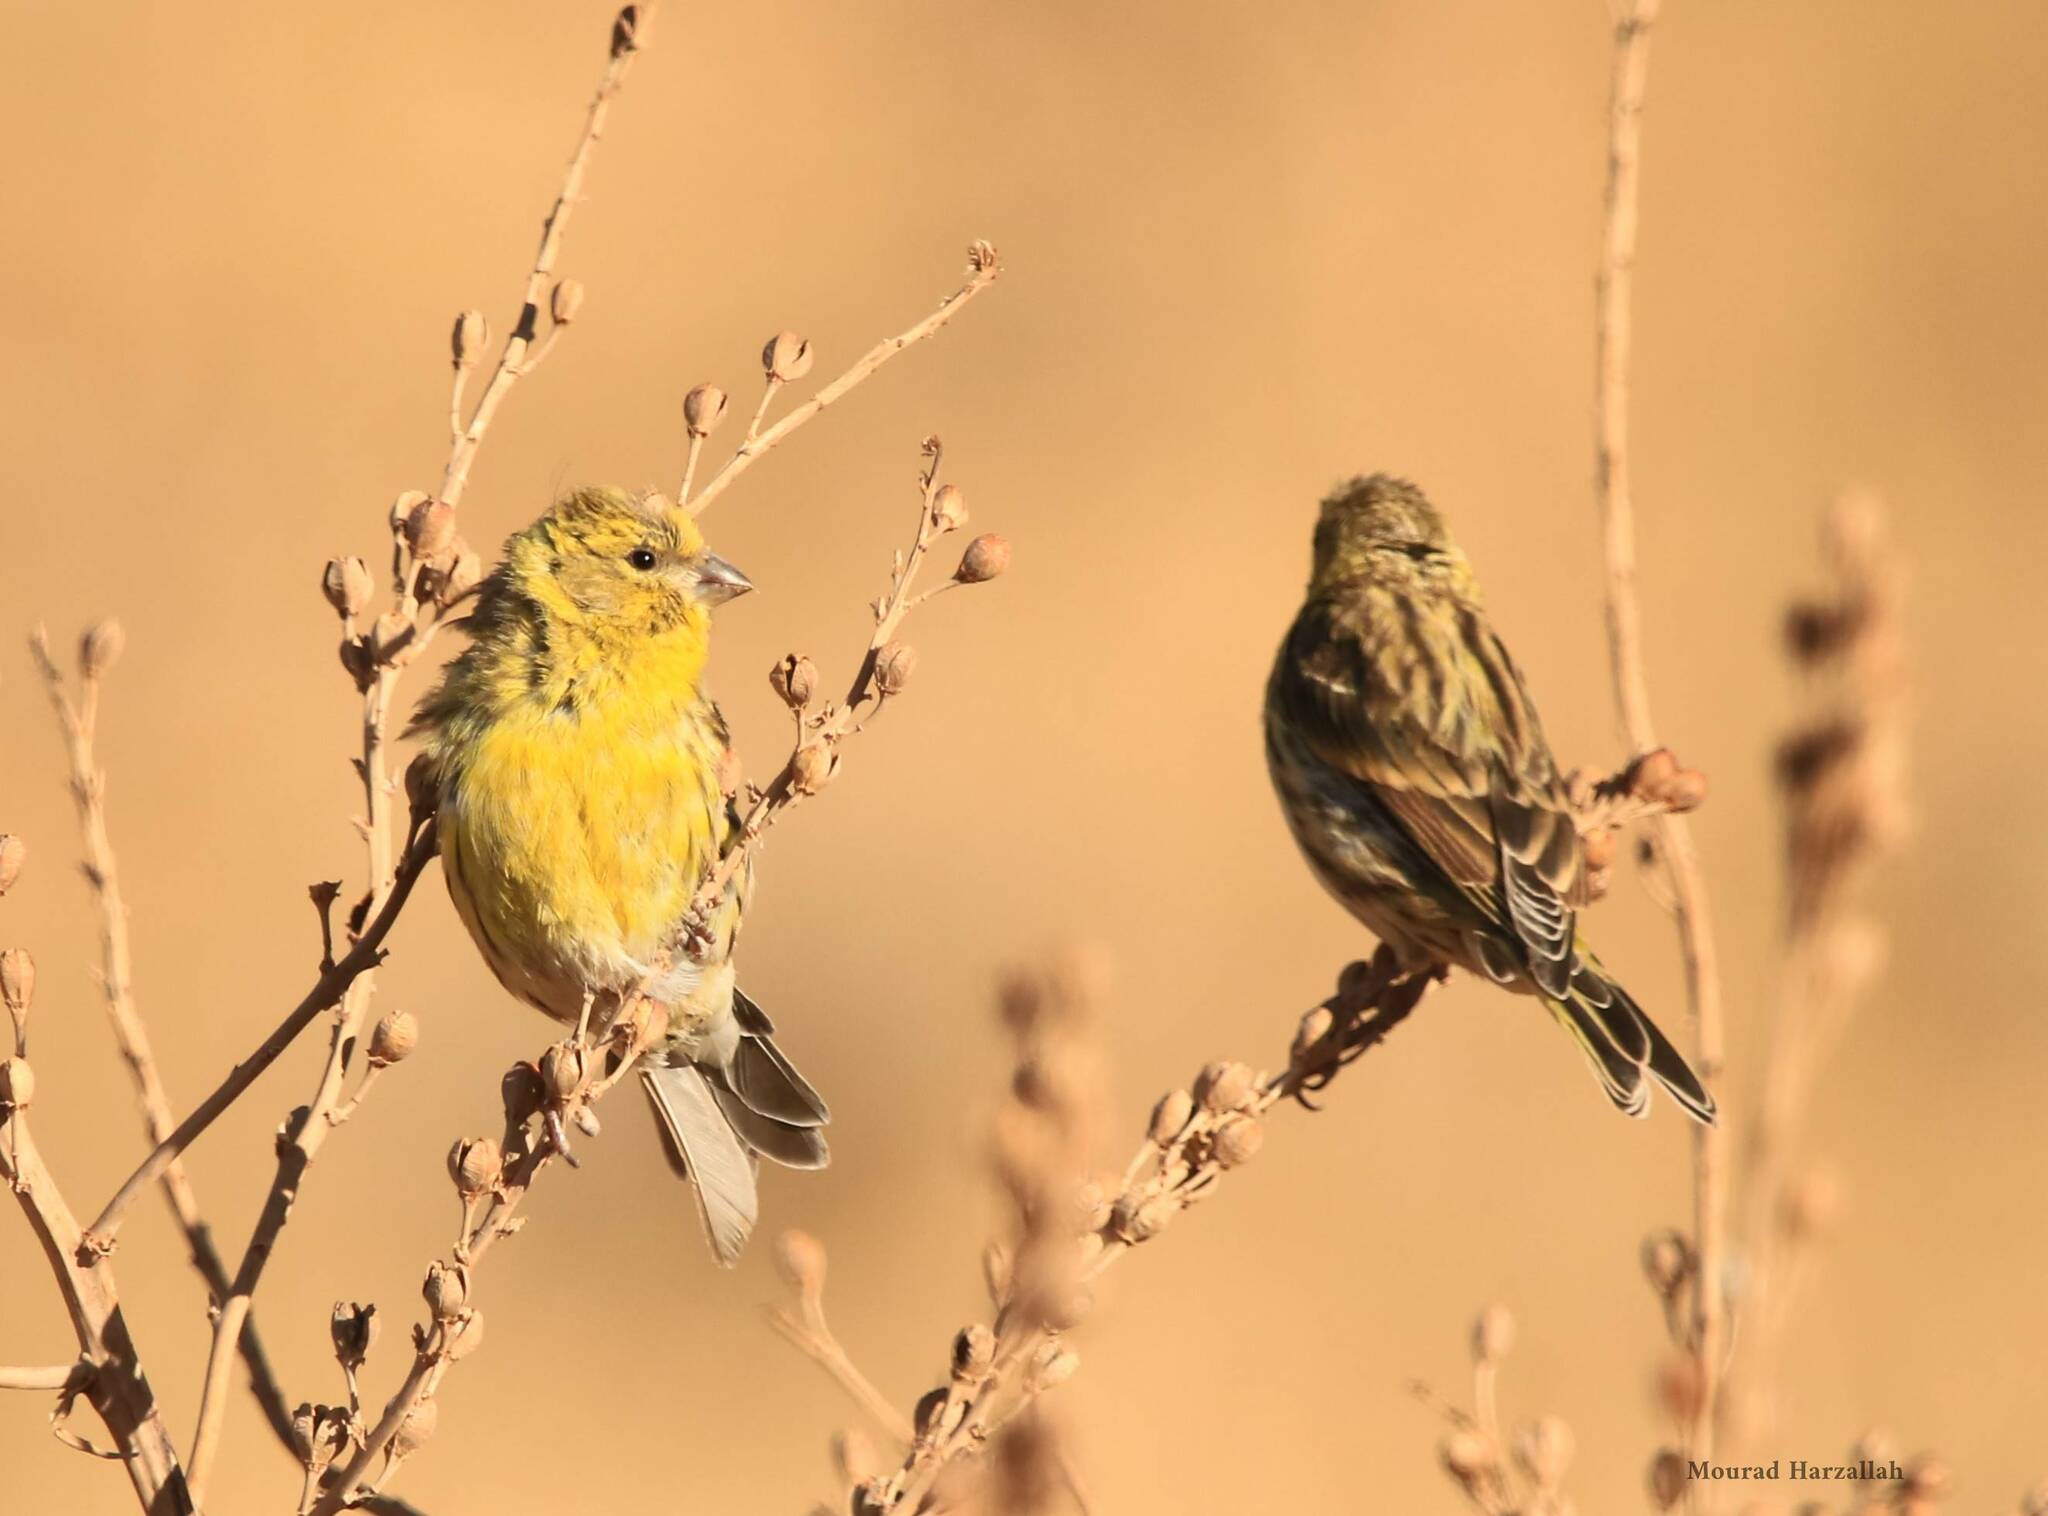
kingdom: Animalia
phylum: Chordata
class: Aves
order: Passeriformes
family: Fringillidae
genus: Serinus
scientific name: Serinus serinus
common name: European serin
